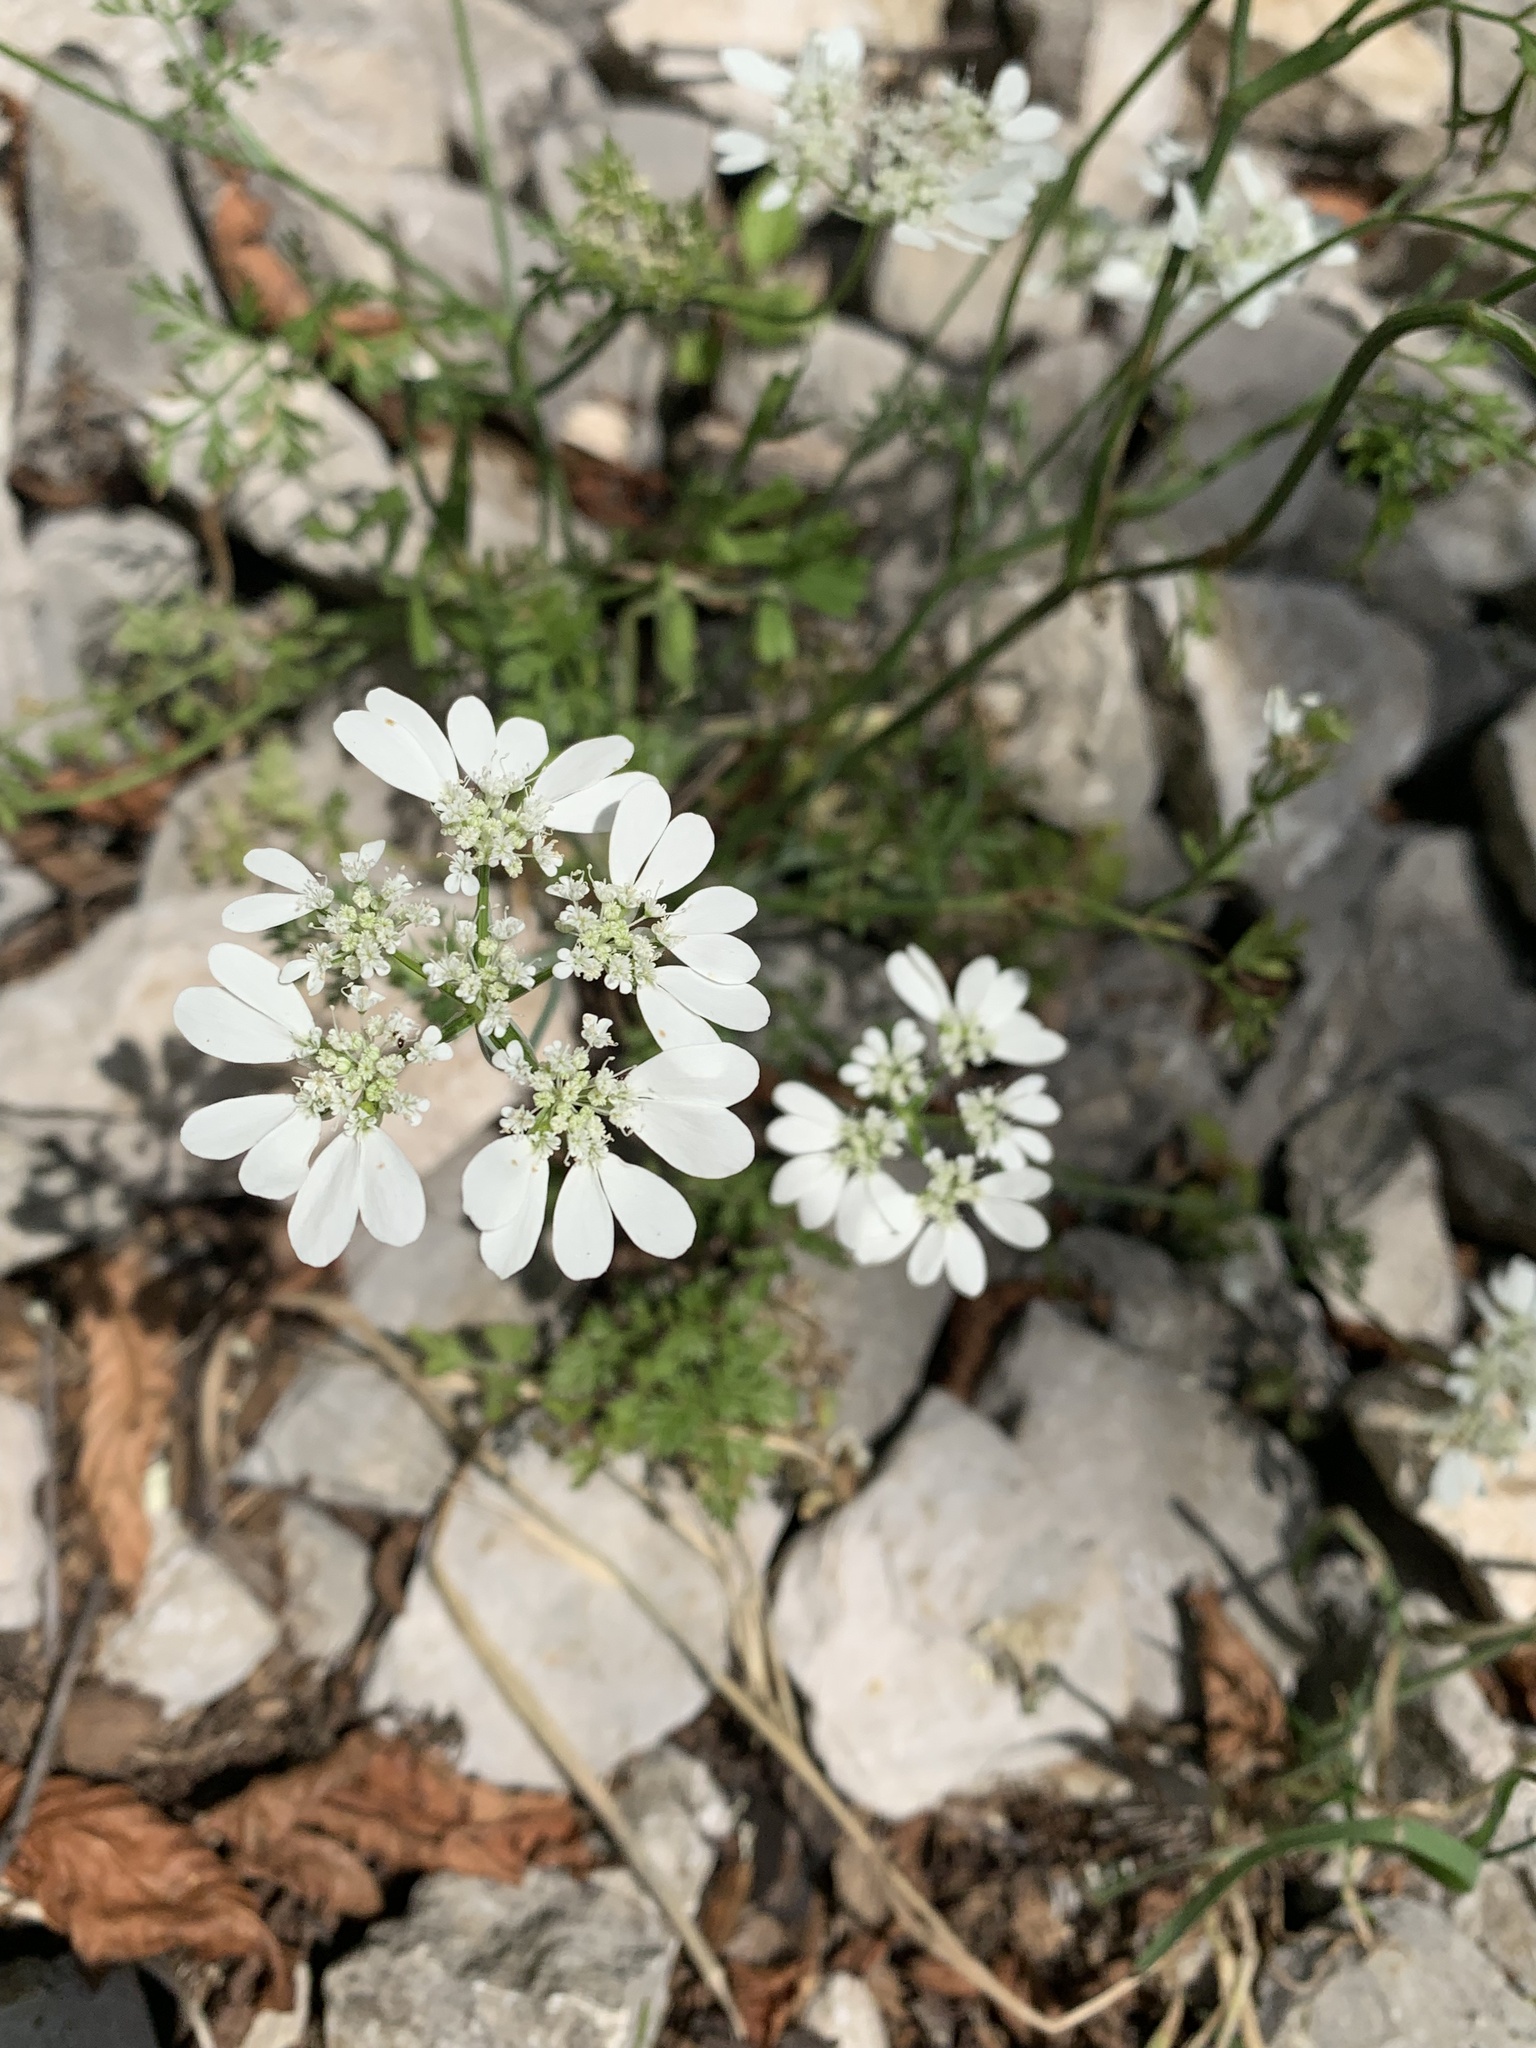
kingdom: Plantae
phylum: Tracheophyta
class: Magnoliopsida
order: Apiales
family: Apiaceae
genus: Orlaya
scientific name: Orlaya grandiflora
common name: White lace flower
